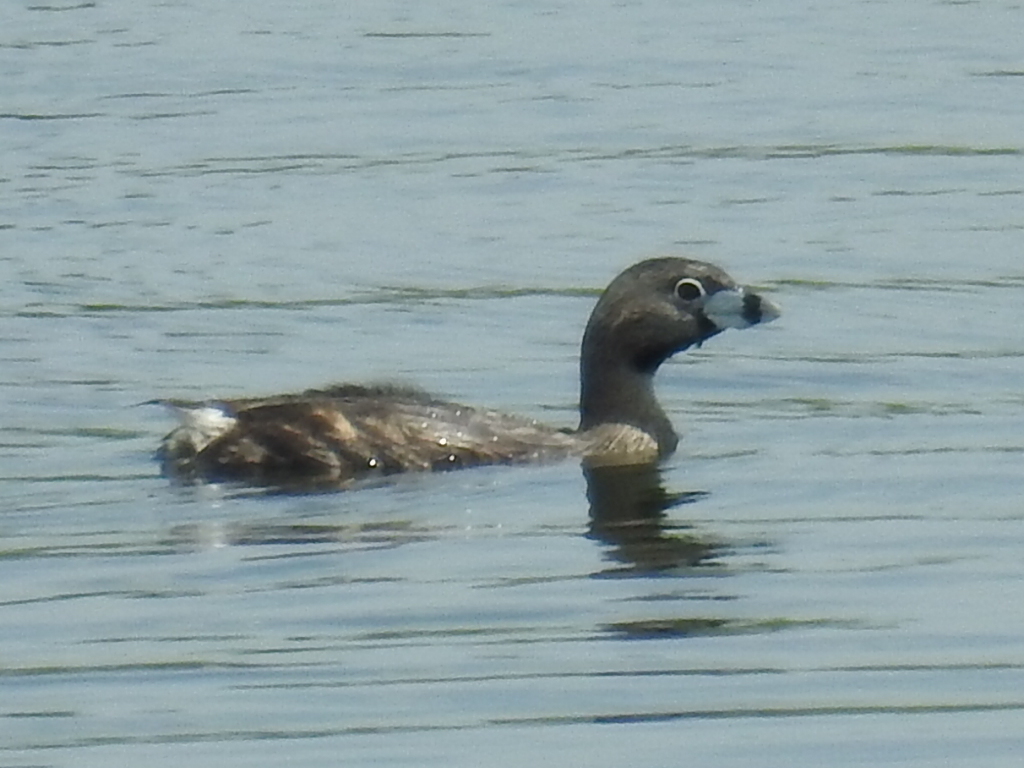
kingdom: Animalia
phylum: Chordata
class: Aves
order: Podicipediformes
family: Podicipedidae
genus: Podilymbus
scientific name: Podilymbus podiceps
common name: Pied-billed grebe
